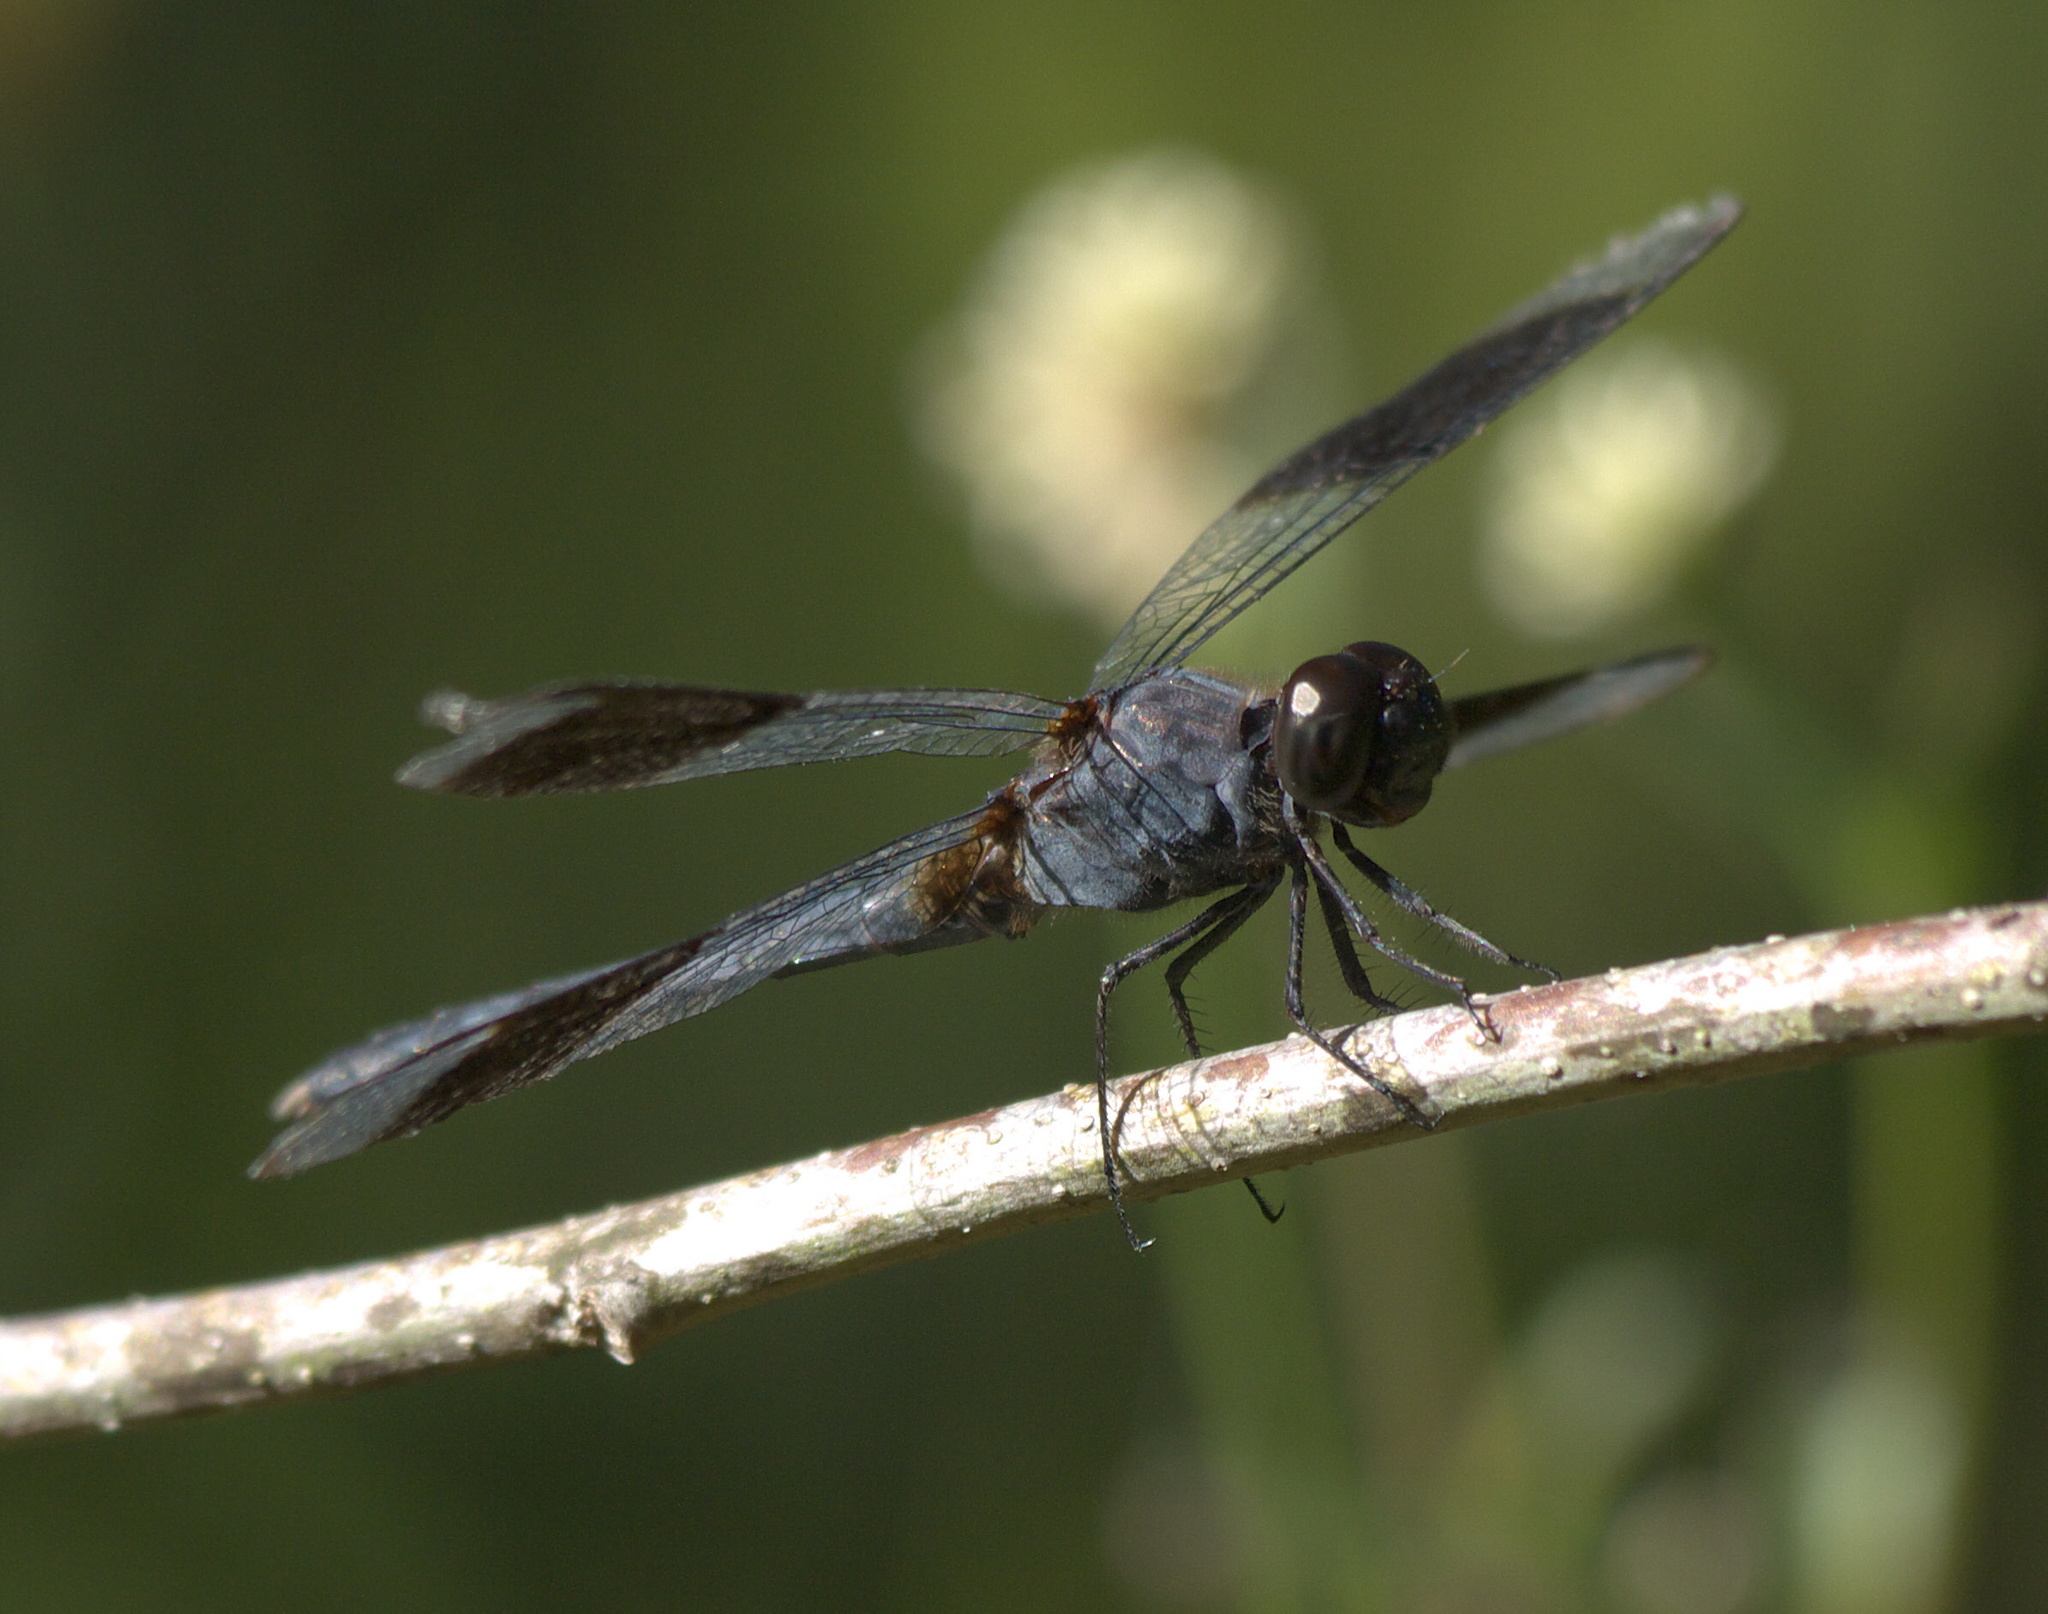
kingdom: Animalia
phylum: Arthropoda
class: Insecta
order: Odonata
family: Libellulidae
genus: Erythrodiplax
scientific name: Erythrodiplax umbrata
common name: Band-winged dragonlet
